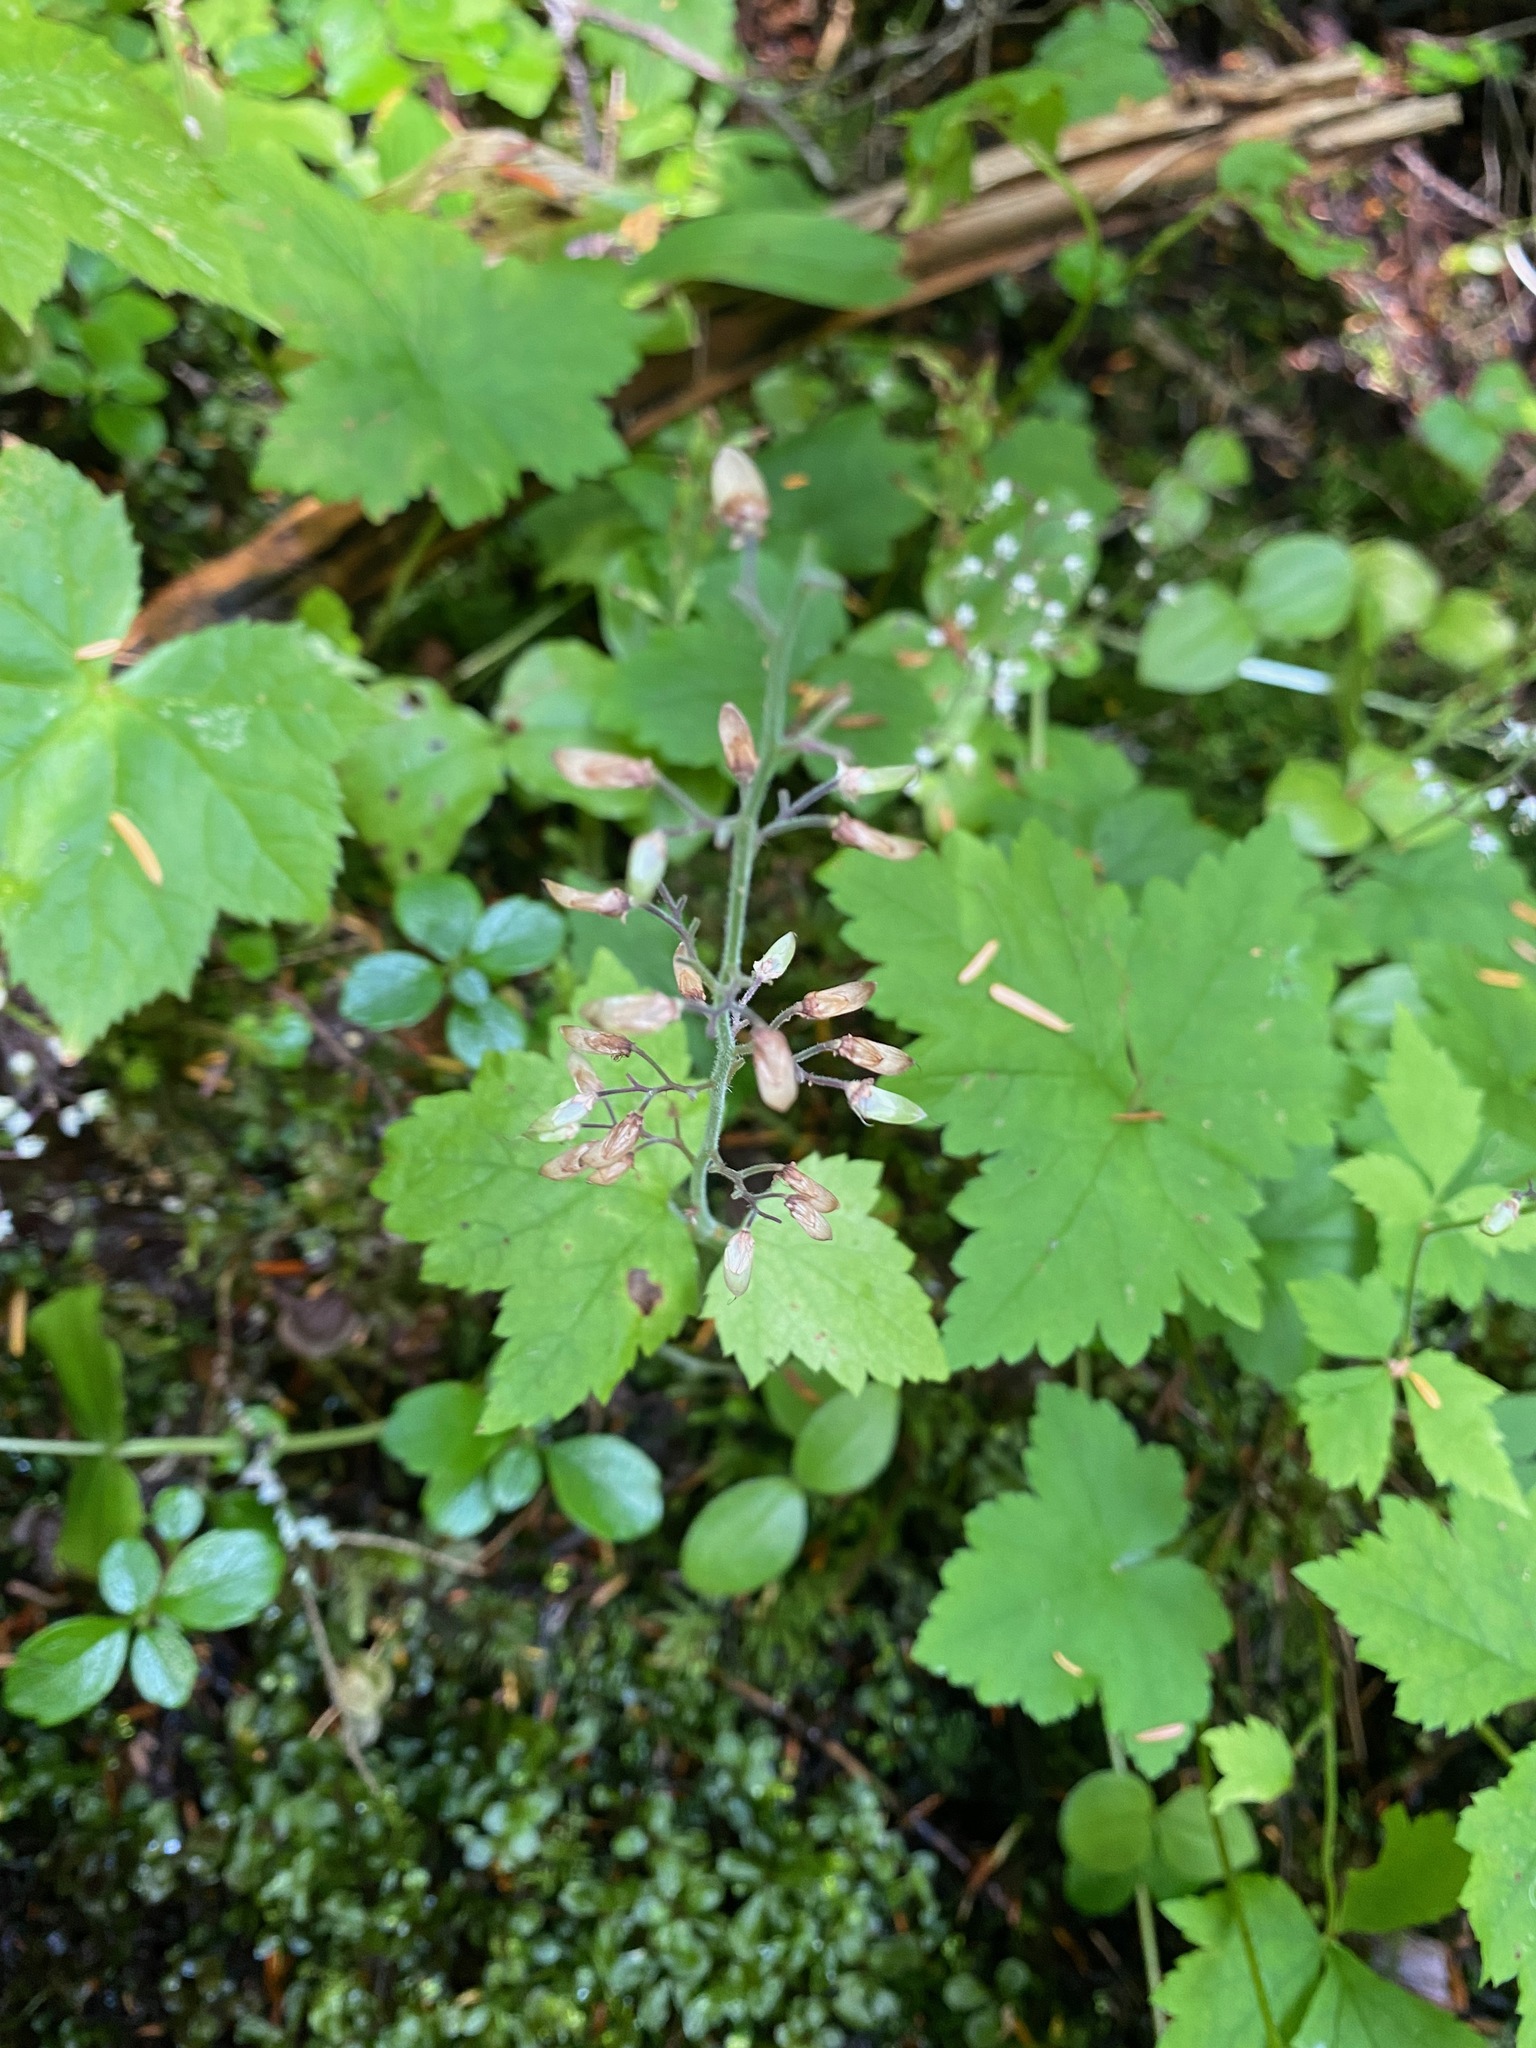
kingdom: Plantae
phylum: Tracheophyta
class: Magnoliopsida
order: Saxifragales
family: Saxifragaceae
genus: Tiarella
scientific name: Tiarella trifoliata
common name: Sugar-scoop
